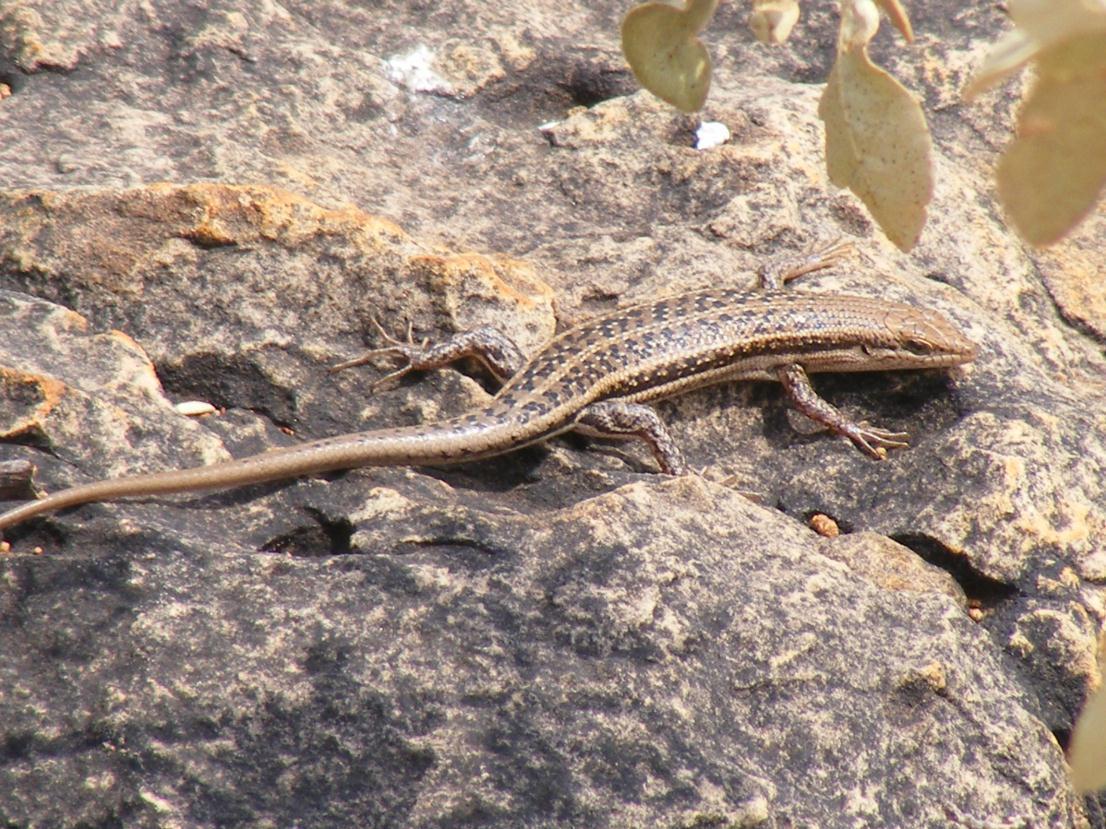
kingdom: Animalia
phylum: Chordata
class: Squamata
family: Scincidae
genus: Trachylepis
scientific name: Trachylepis varia
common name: Eastern variable skink
